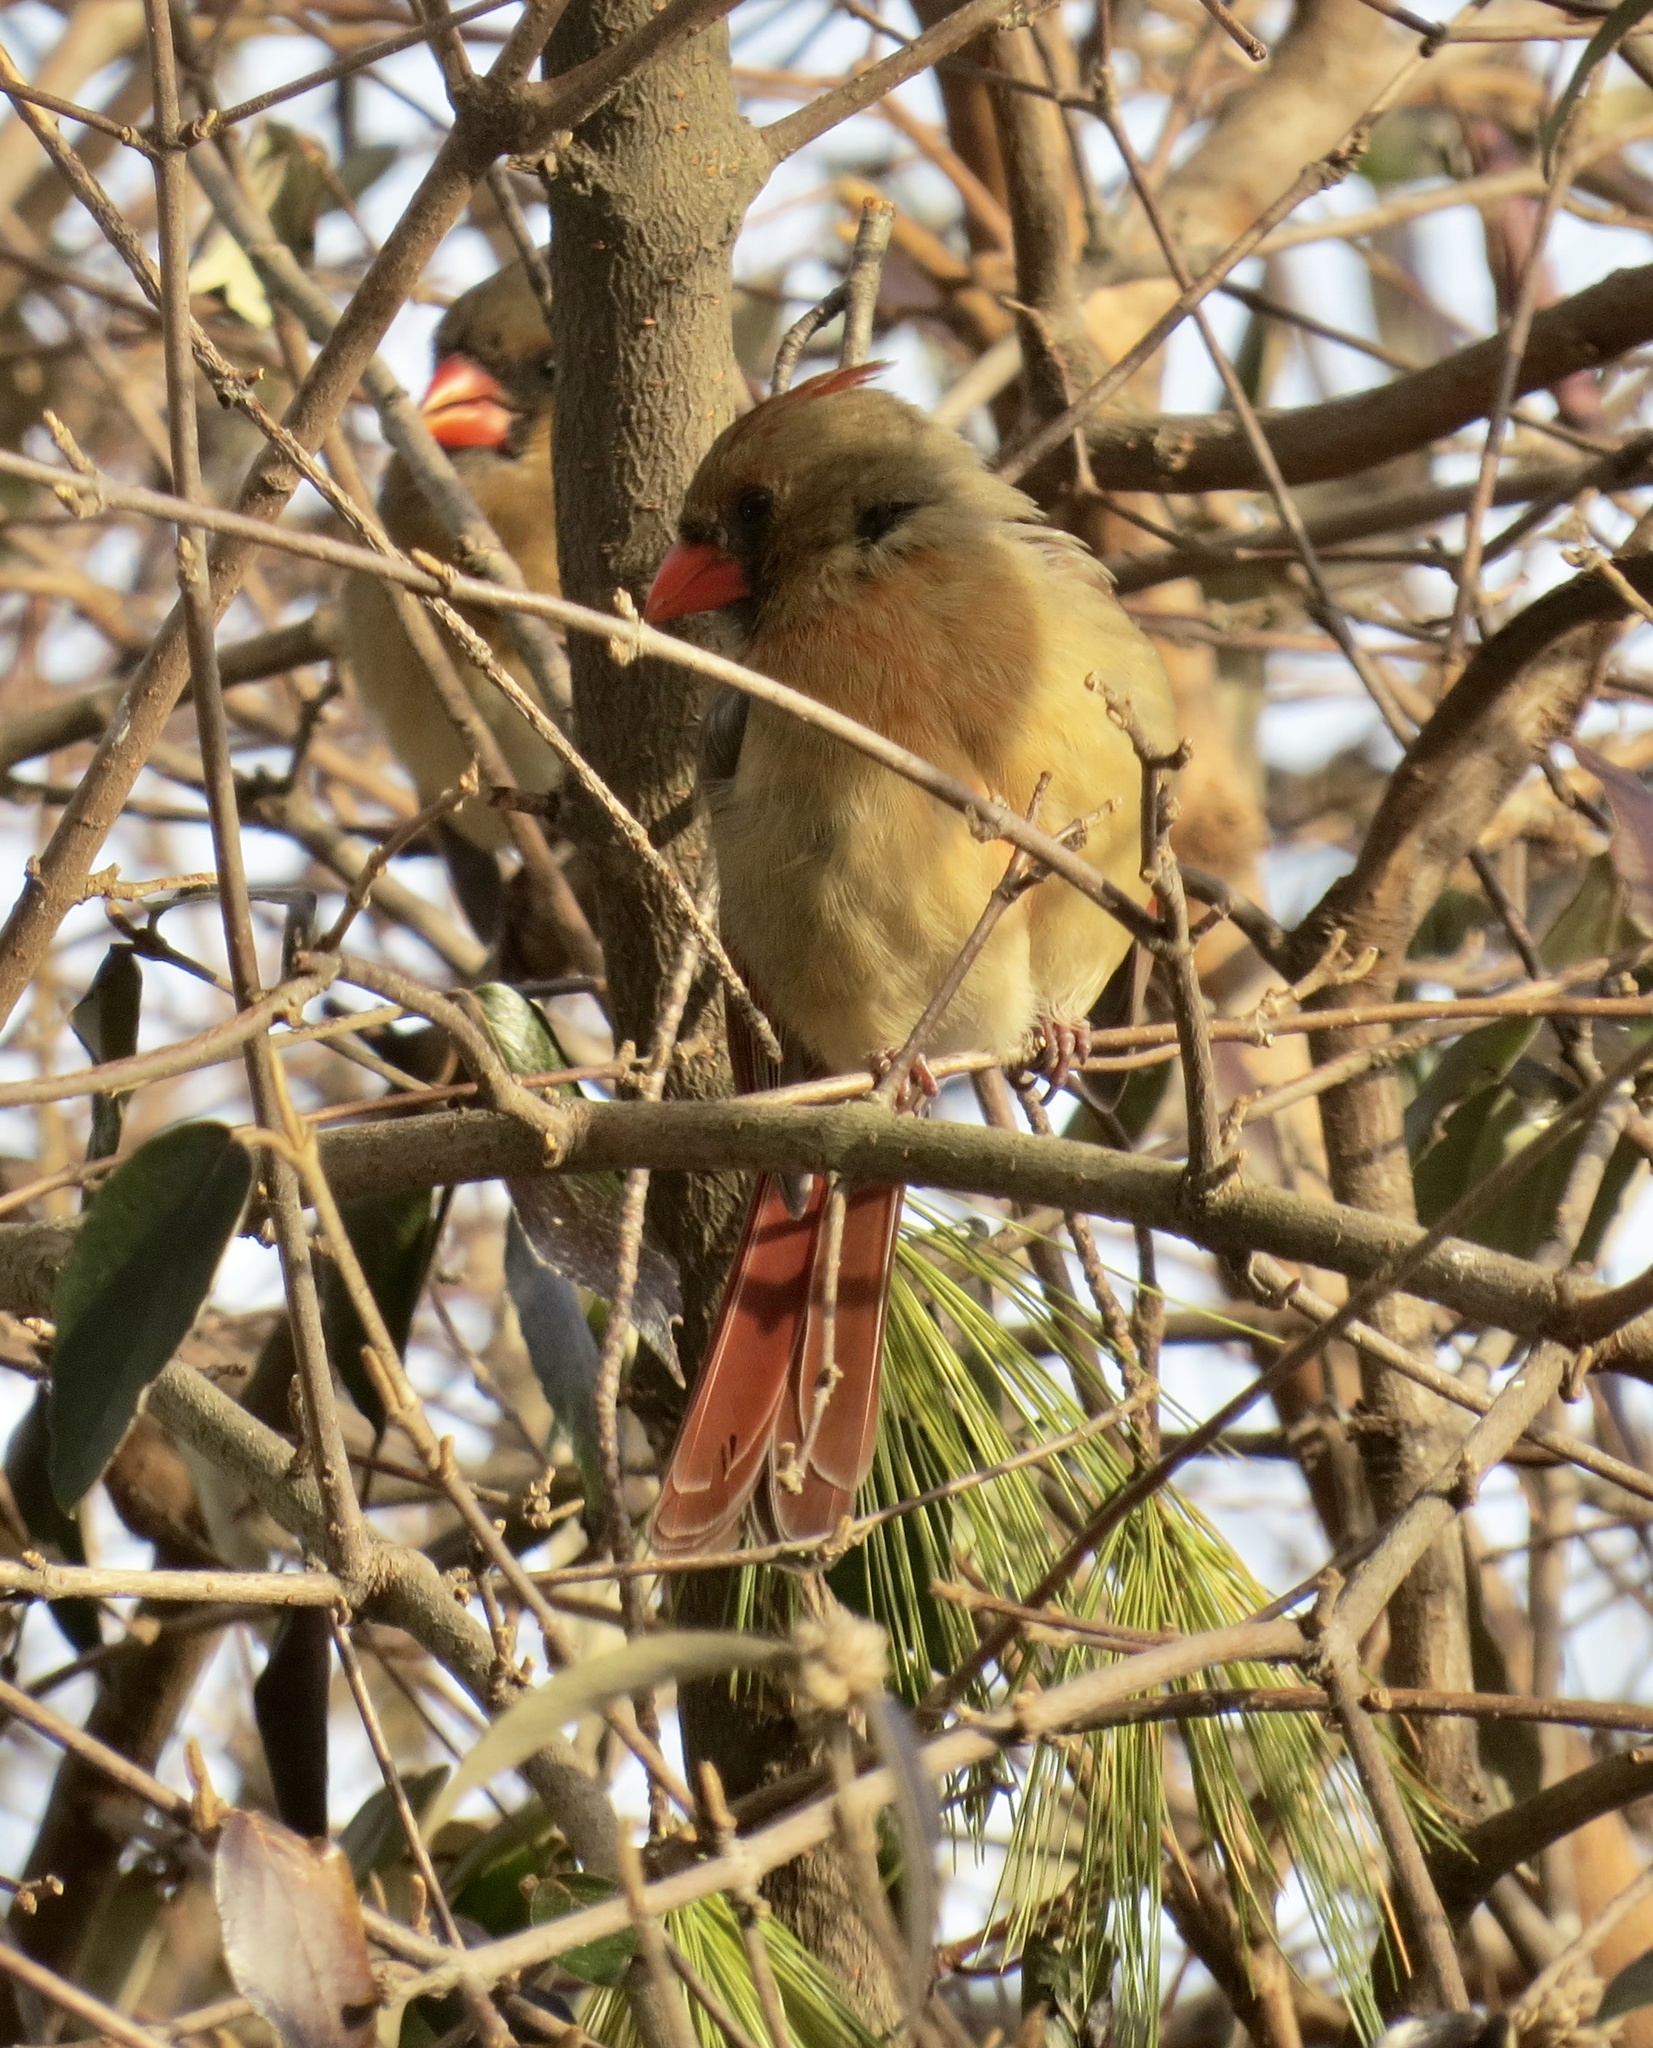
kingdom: Animalia
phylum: Chordata
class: Aves
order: Passeriformes
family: Cardinalidae
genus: Cardinalis
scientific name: Cardinalis cardinalis
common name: Northern cardinal
